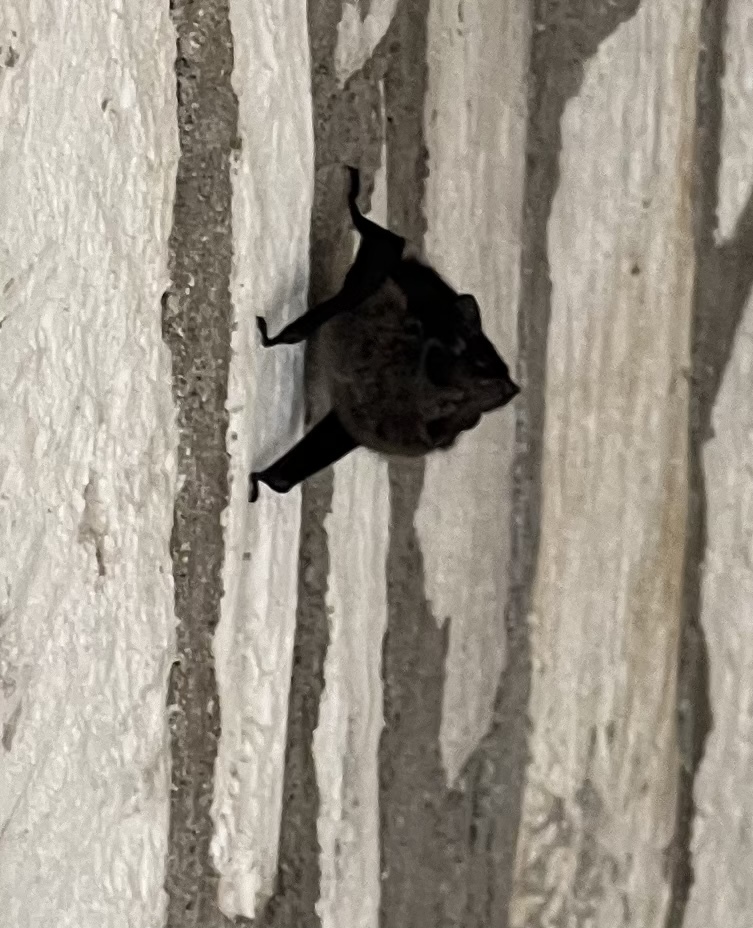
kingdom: Animalia
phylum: Chordata
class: Mammalia
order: Chiroptera
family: Emballonuridae
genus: Saccopteryx
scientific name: Saccopteryx bilineata
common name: Greater sac-winged bat
